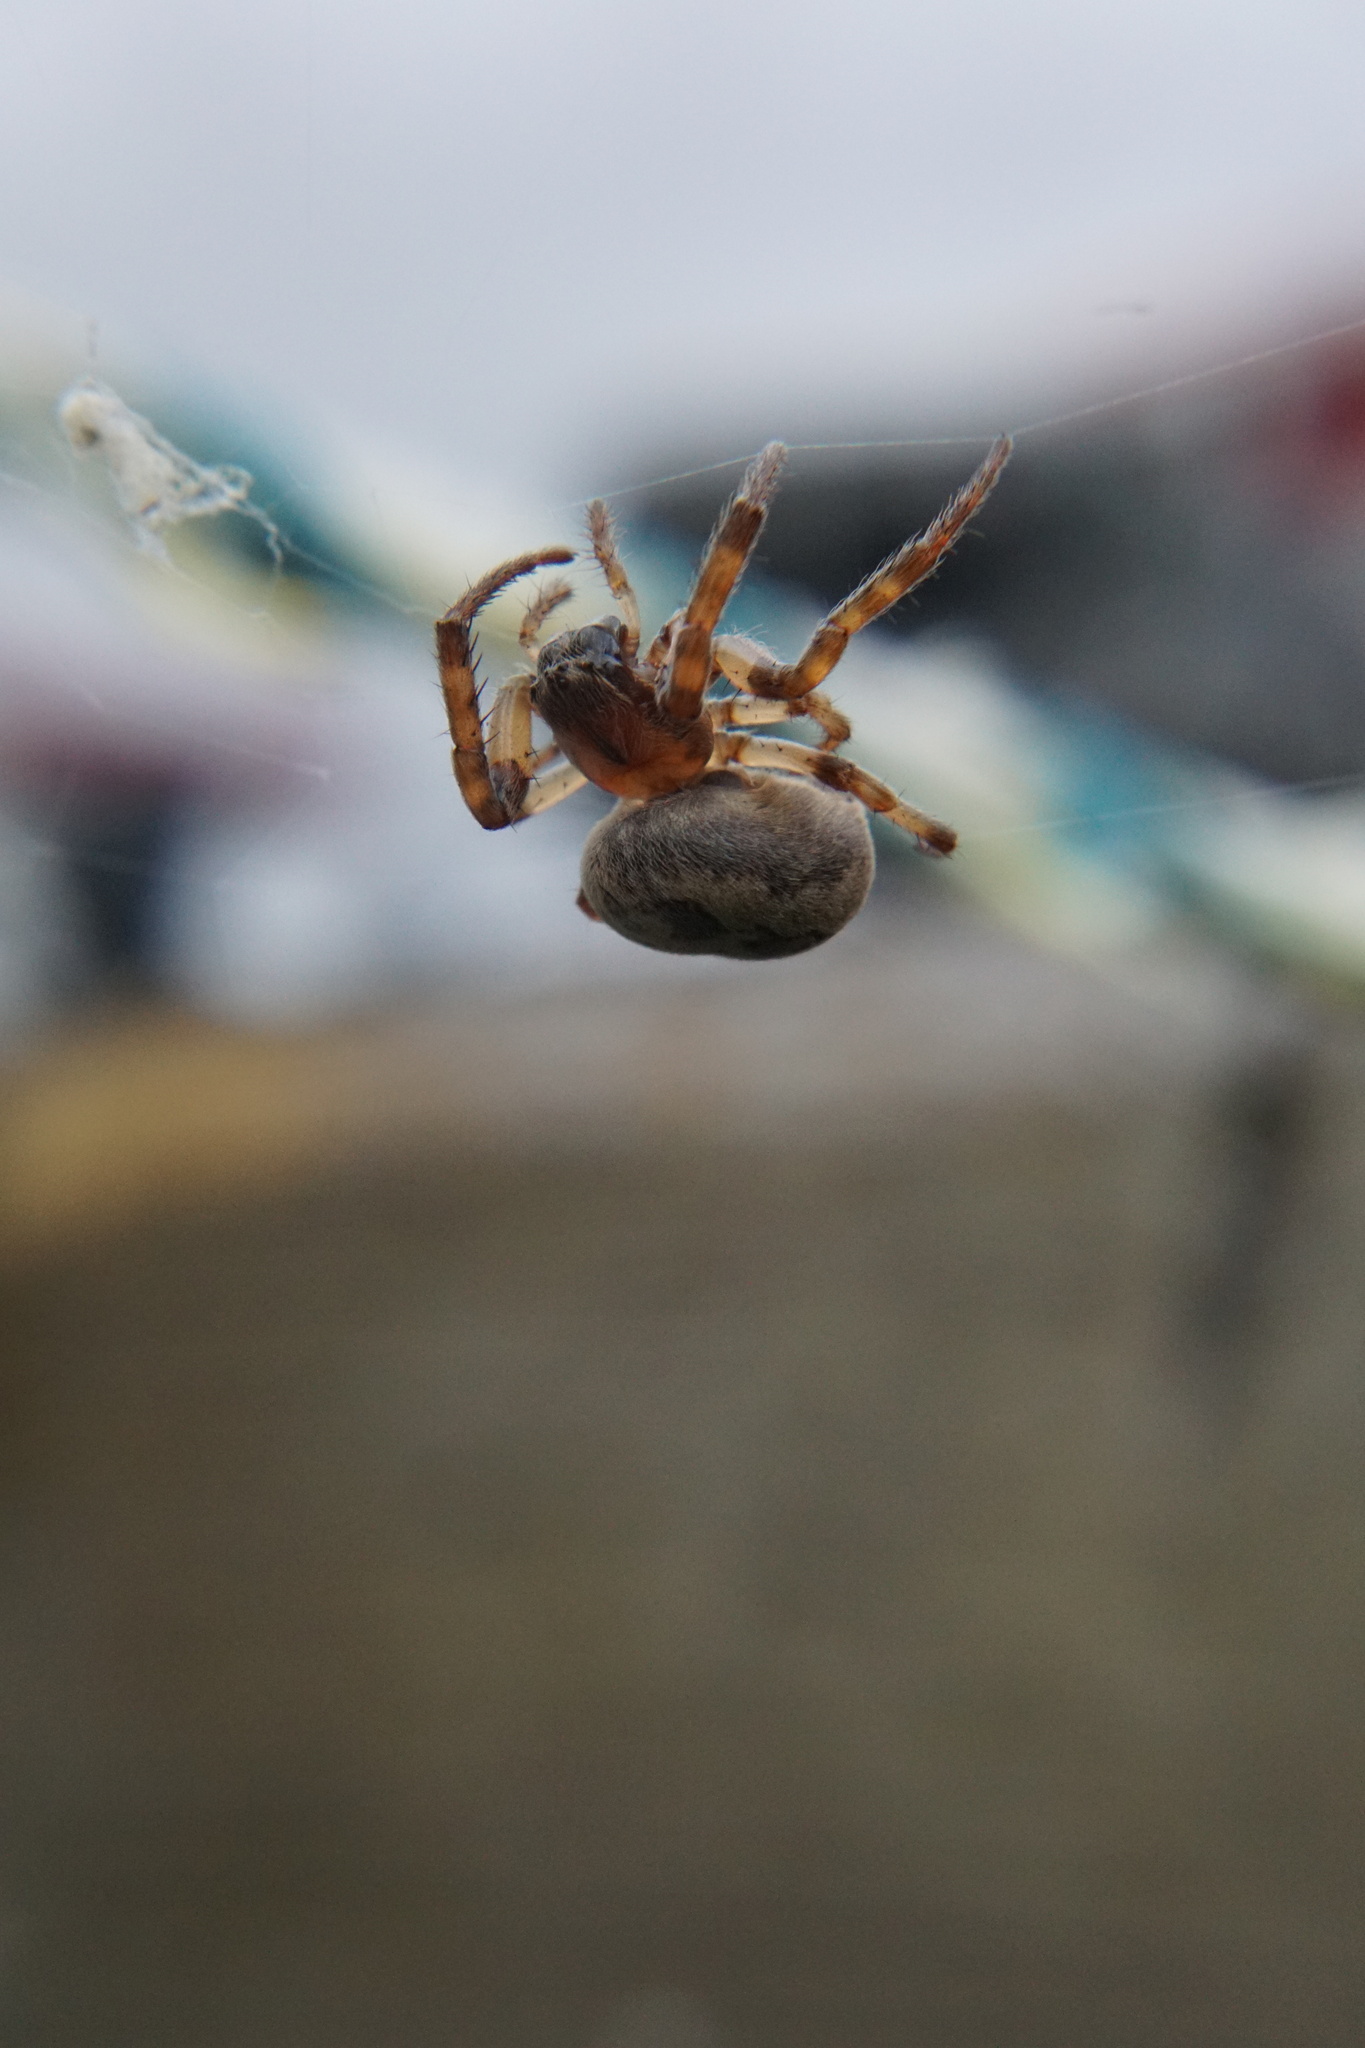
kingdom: Animalia
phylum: Arthropoda
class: Arachnida
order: Araneae
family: Araneidae
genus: Larinioides
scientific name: Larinioides cornutus
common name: Furrow orbweaver
